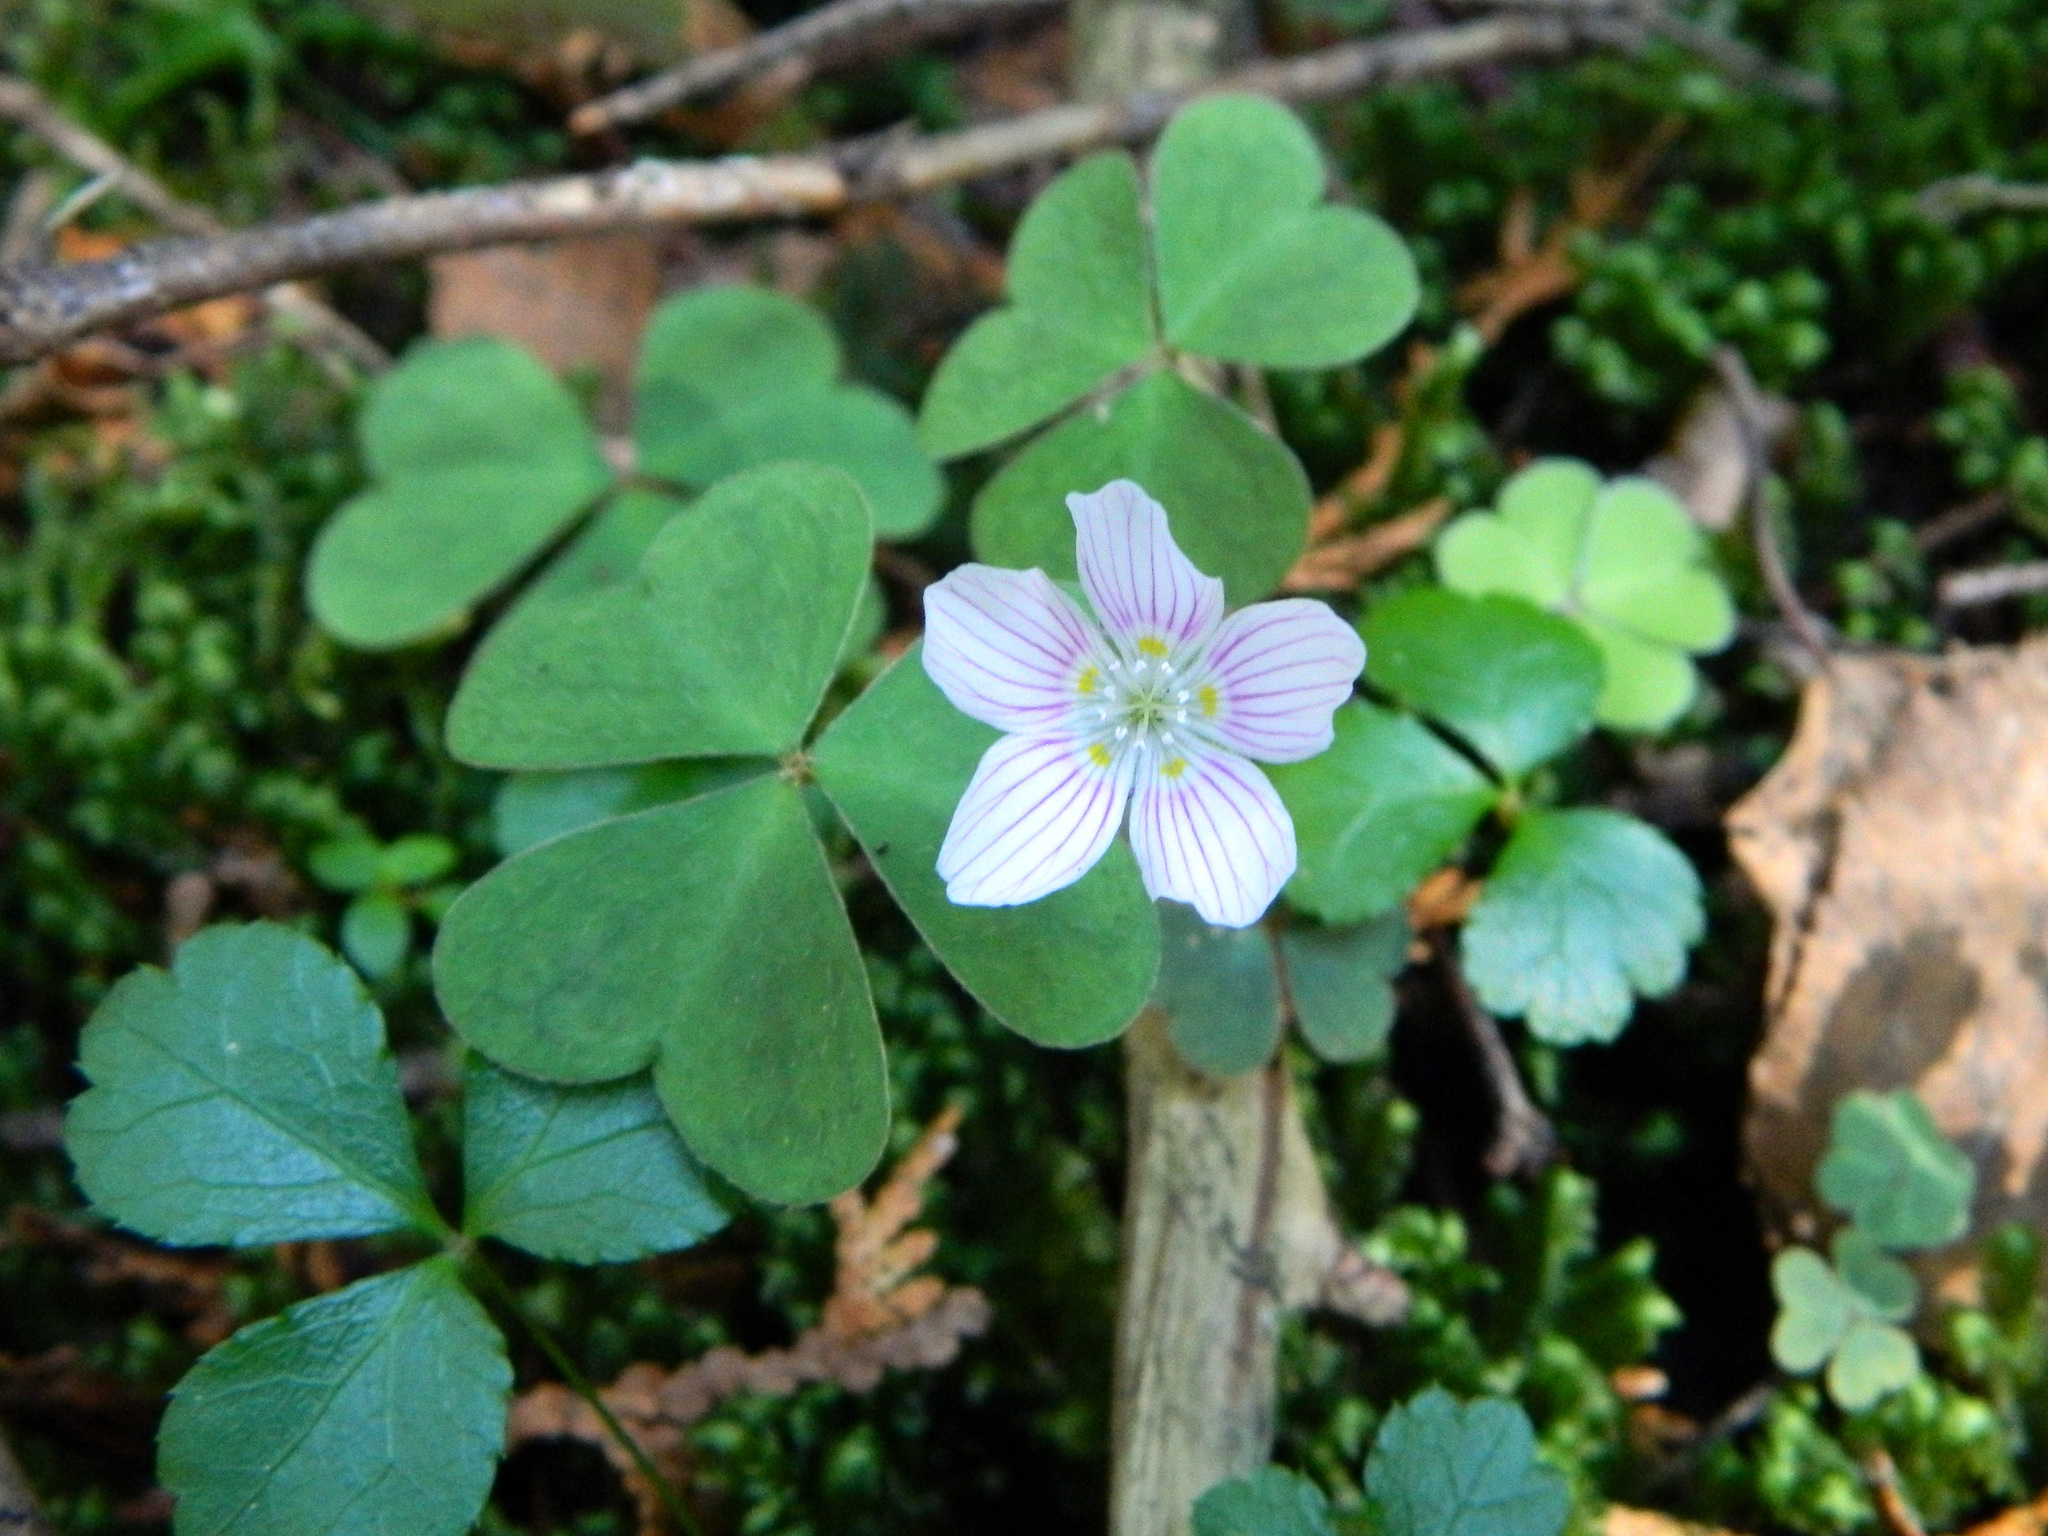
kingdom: Plantae
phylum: Tracheophyta
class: Magnoliopsida
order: Oxalidales
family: Oxalidaceae
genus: Oxalis
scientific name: Oxalis montana
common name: American wood-sorrel
